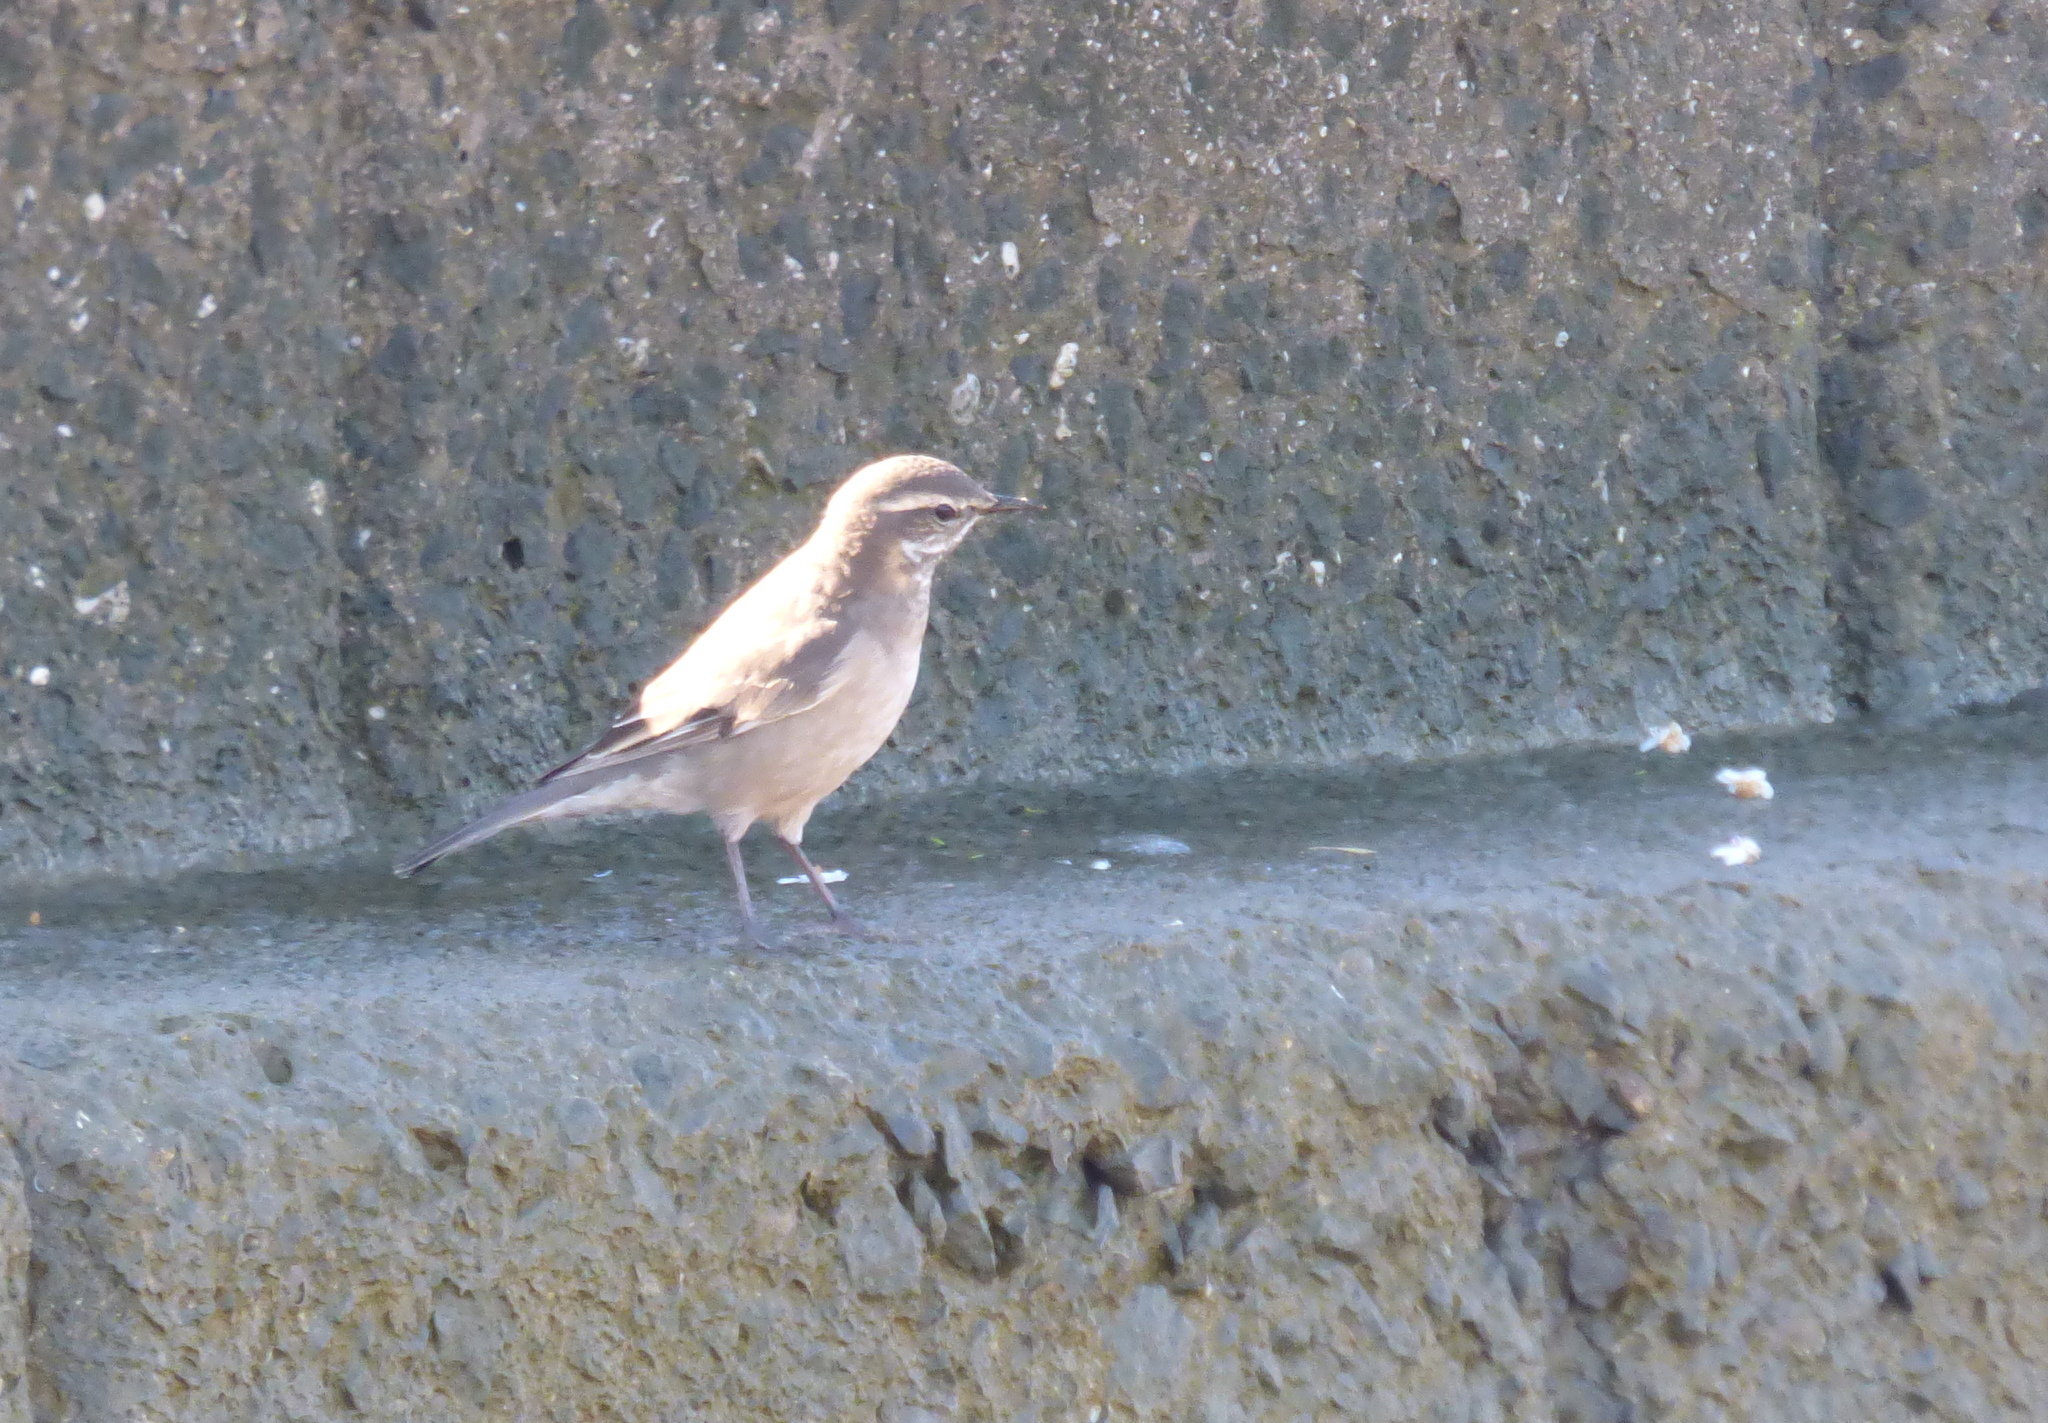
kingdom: Animalia
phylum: Chordata
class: Aves
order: Passeriformes
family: Furnariidae
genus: Cinclodes
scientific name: Cinclodes fuscus
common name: Buff-winged cinclodes
